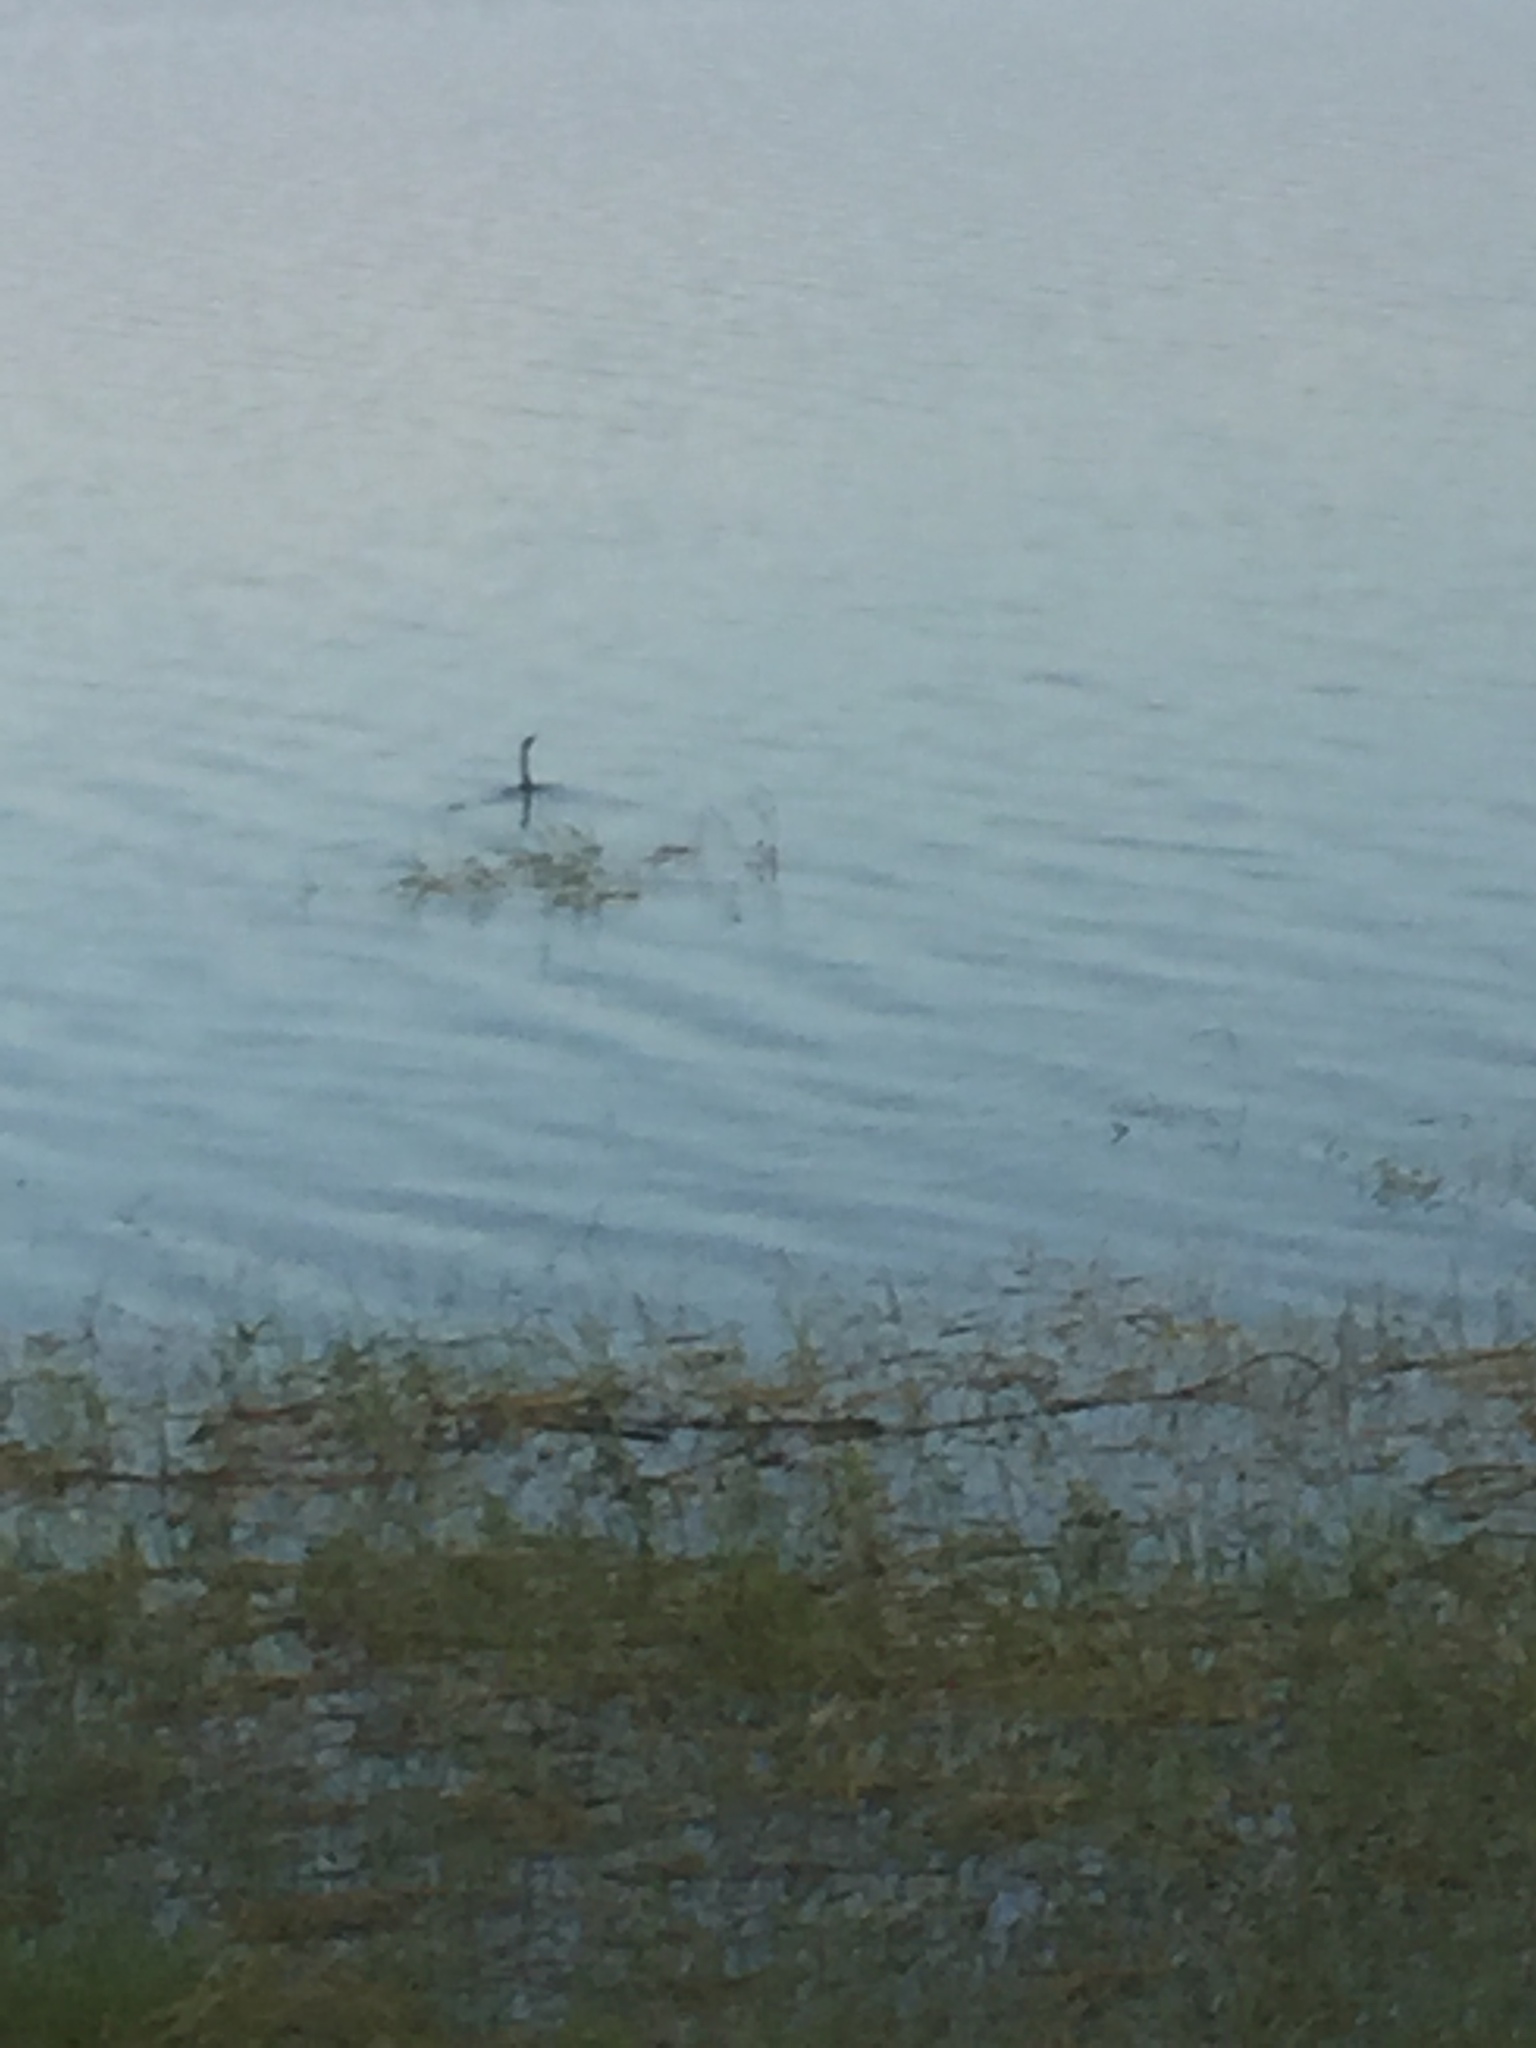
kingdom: Animalia
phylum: Chordata
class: Aves
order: Suliformes
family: Anhingidae
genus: Anhinga
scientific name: Anhinga melanogaster
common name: Oriental darter
